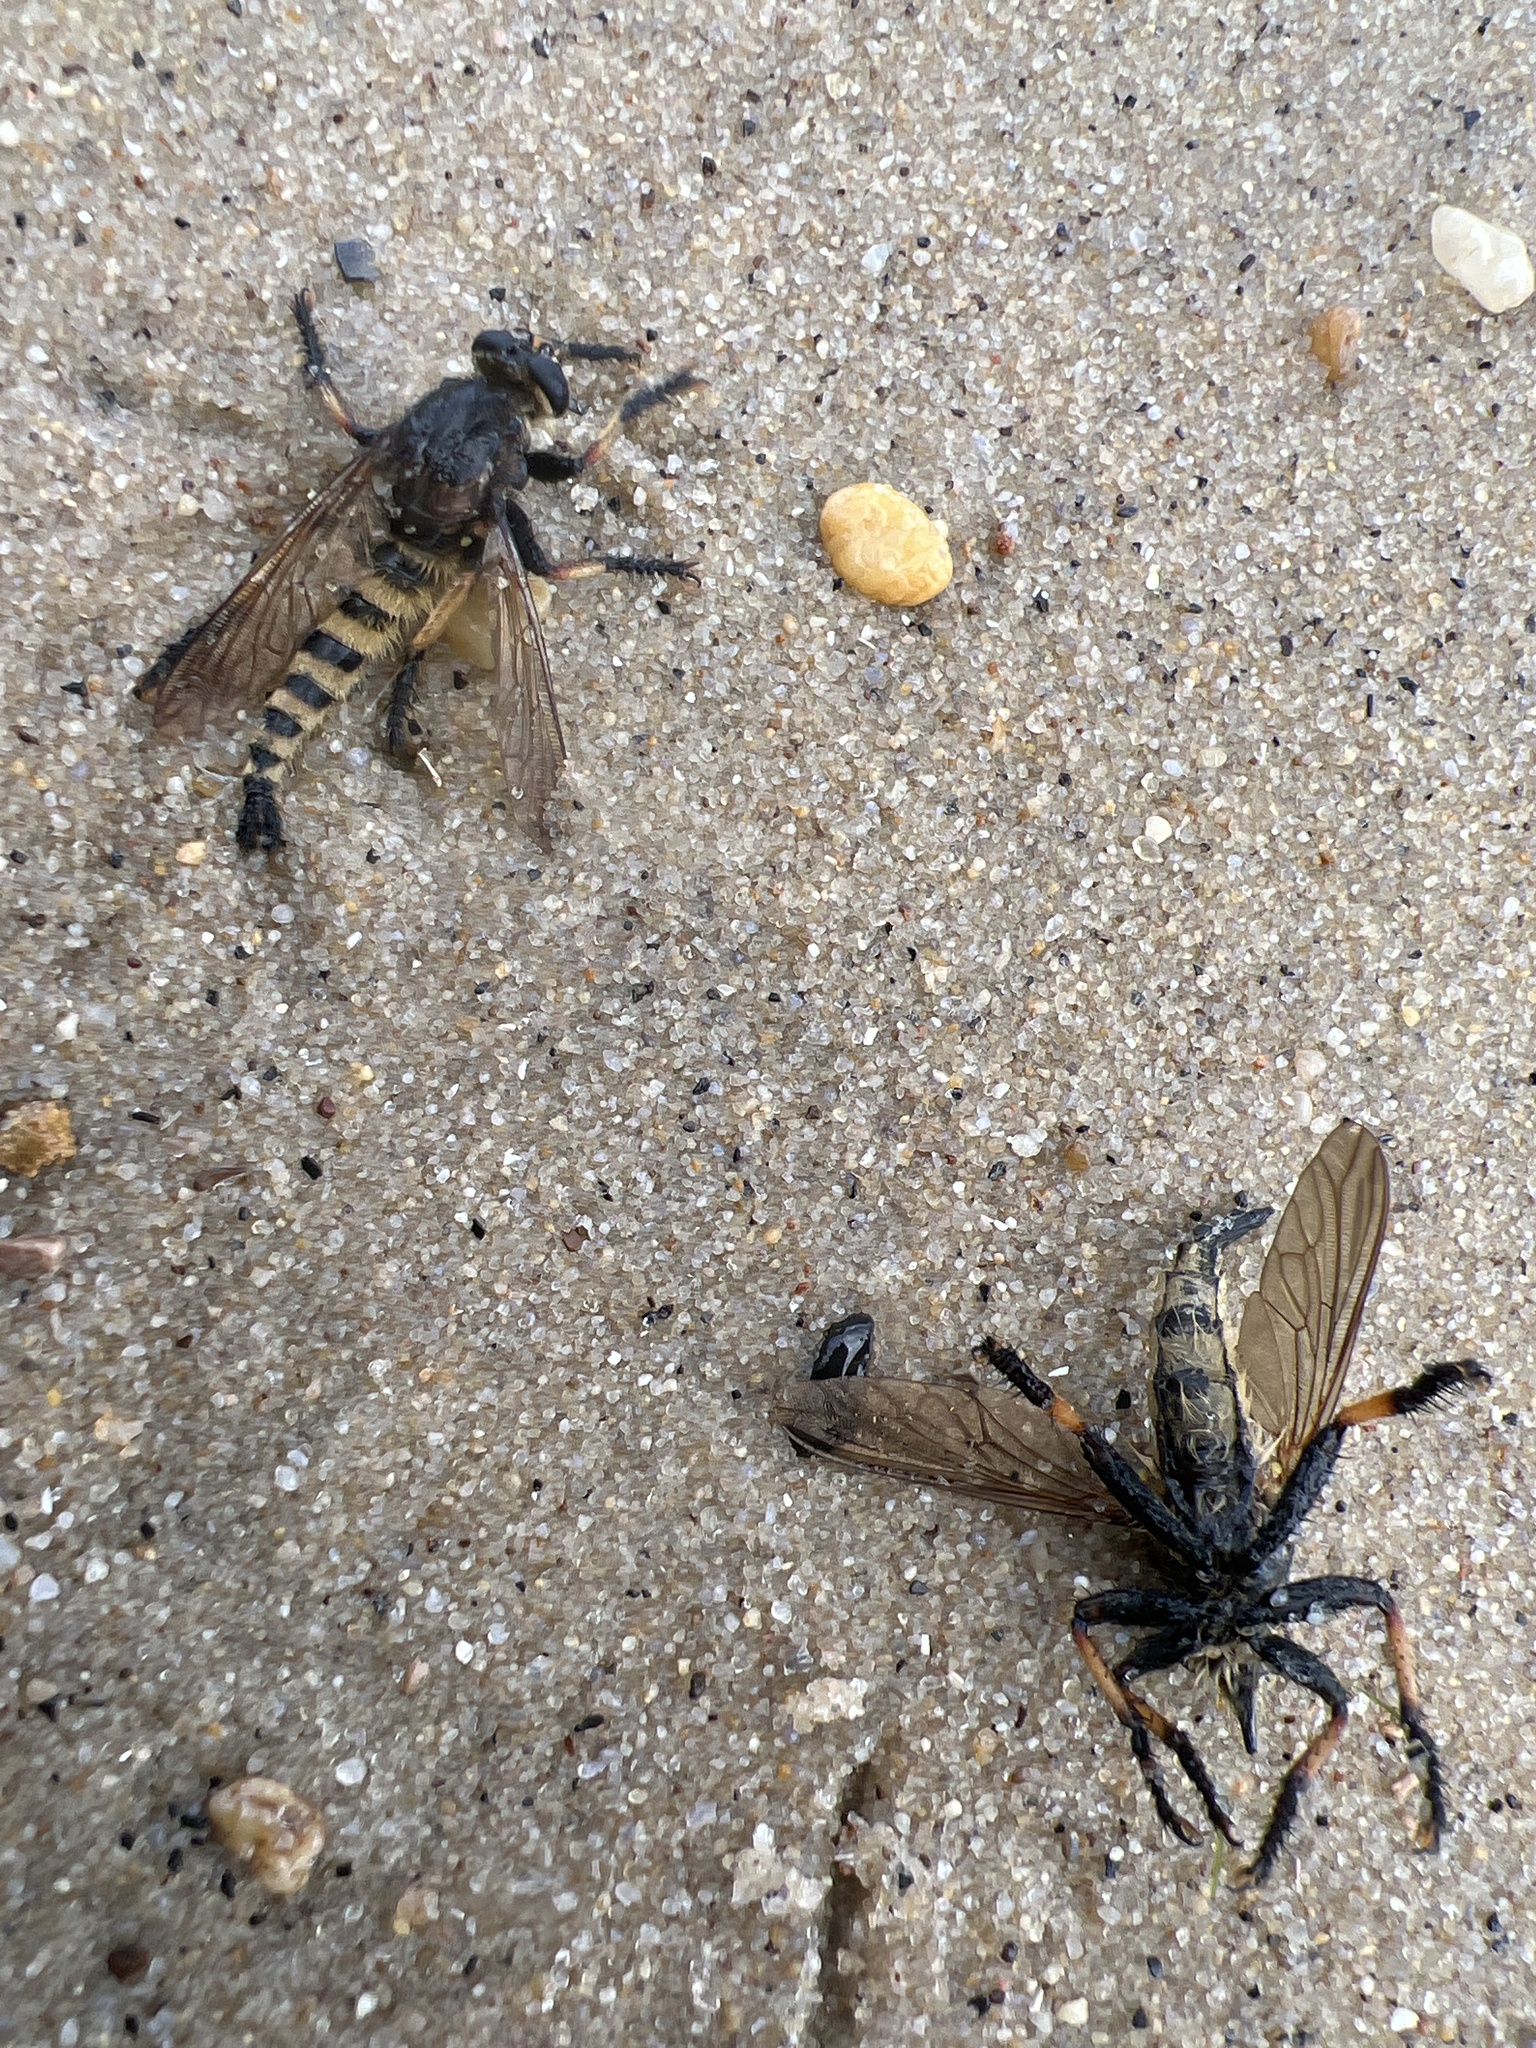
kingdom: Animalia
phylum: Arthropoda
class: Insecta
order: Diptera
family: Asilidae
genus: Promachus
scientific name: Promachus rufipes
